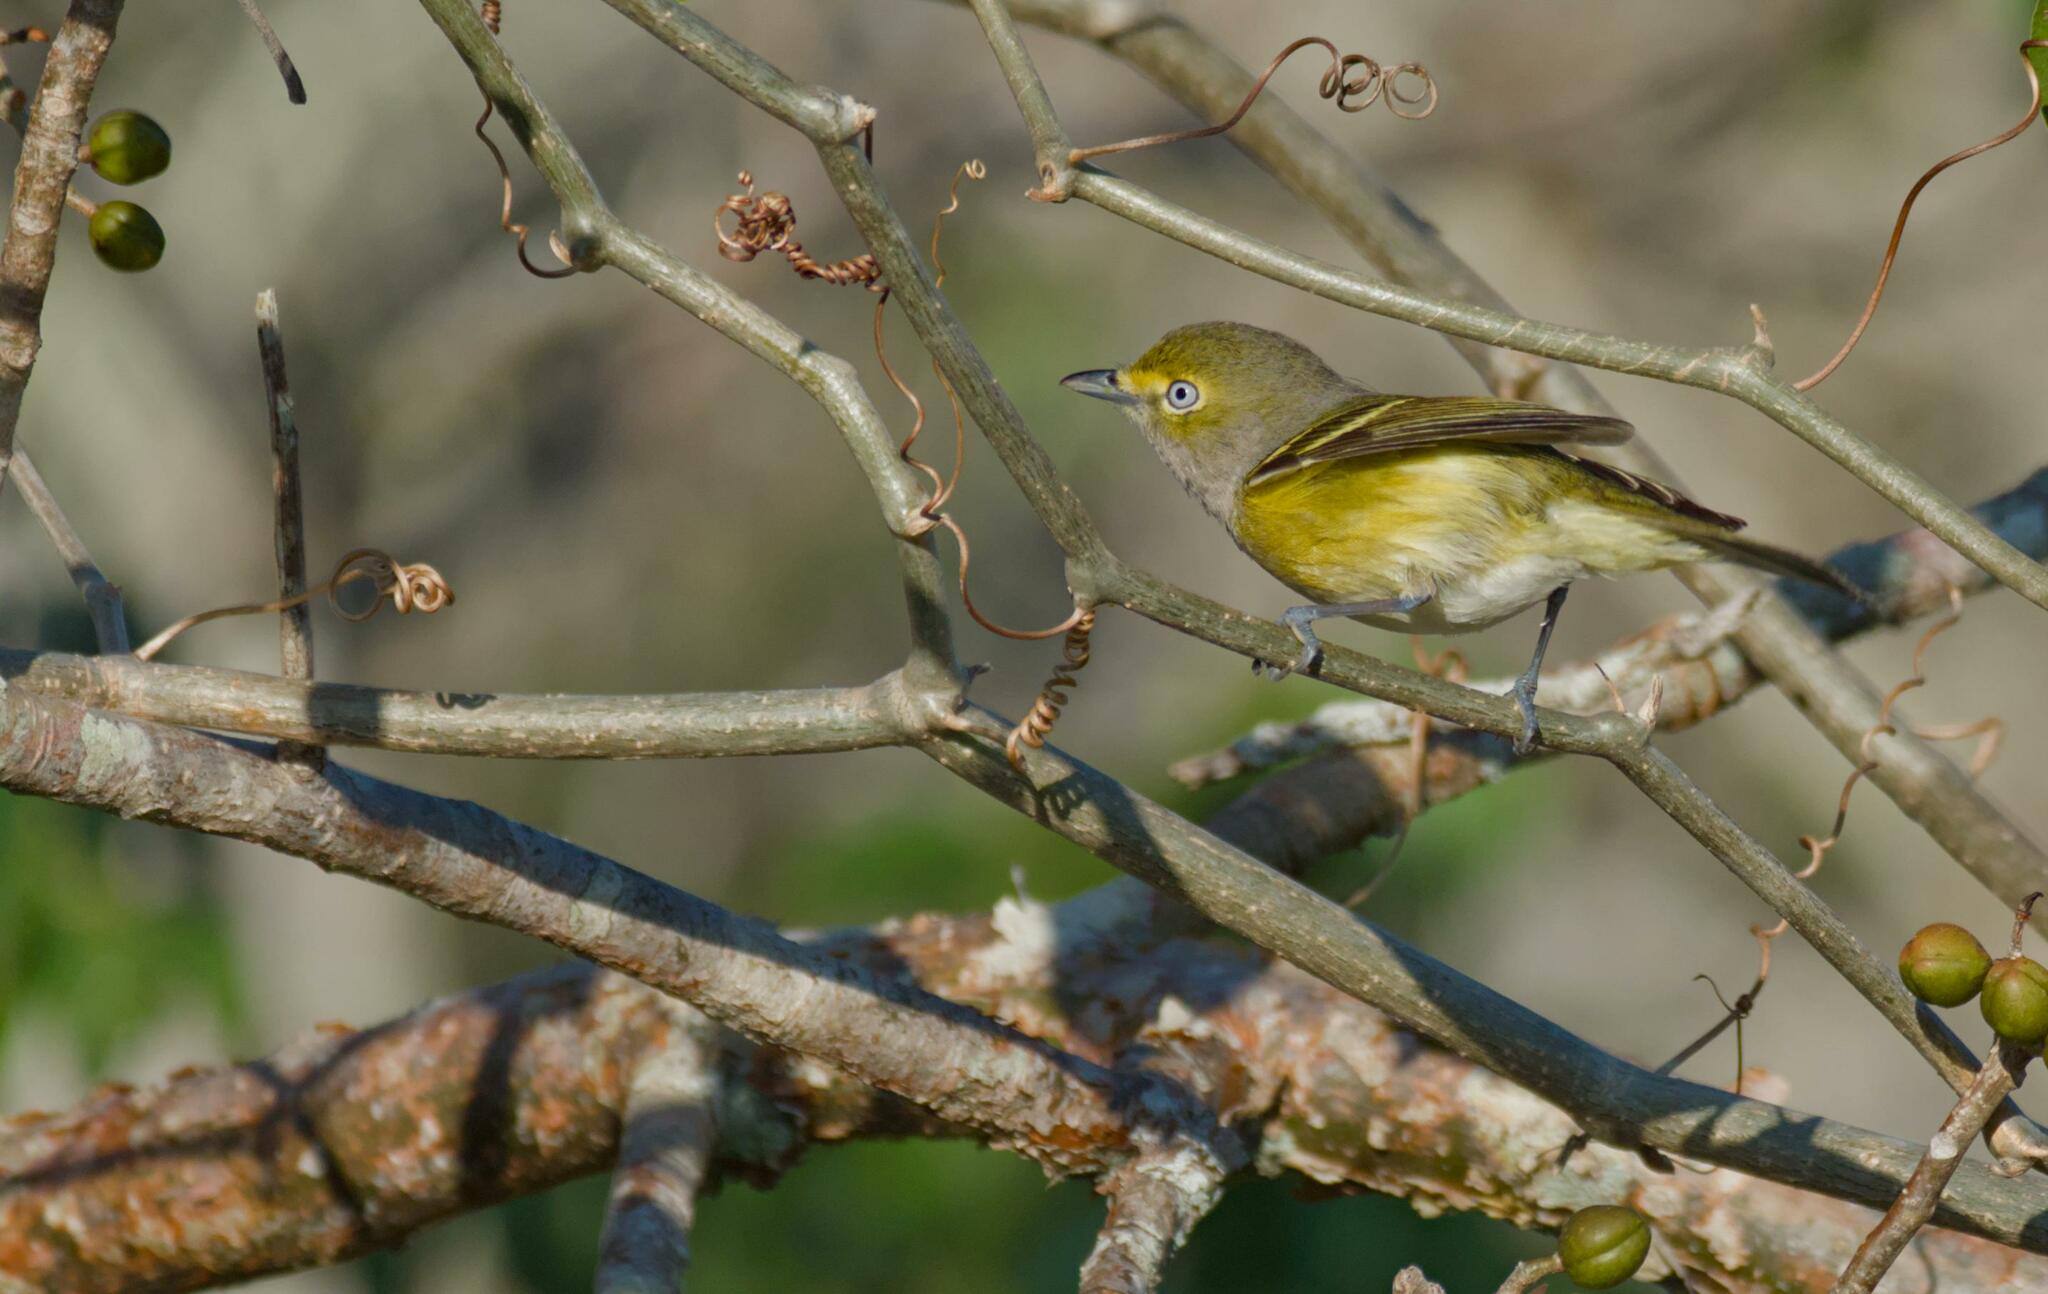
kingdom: Animalia
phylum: Chordata
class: Aves
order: Passeriformes
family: Vireonidae
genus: Vireo
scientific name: Vireo griseus
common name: White-eyed vireo
